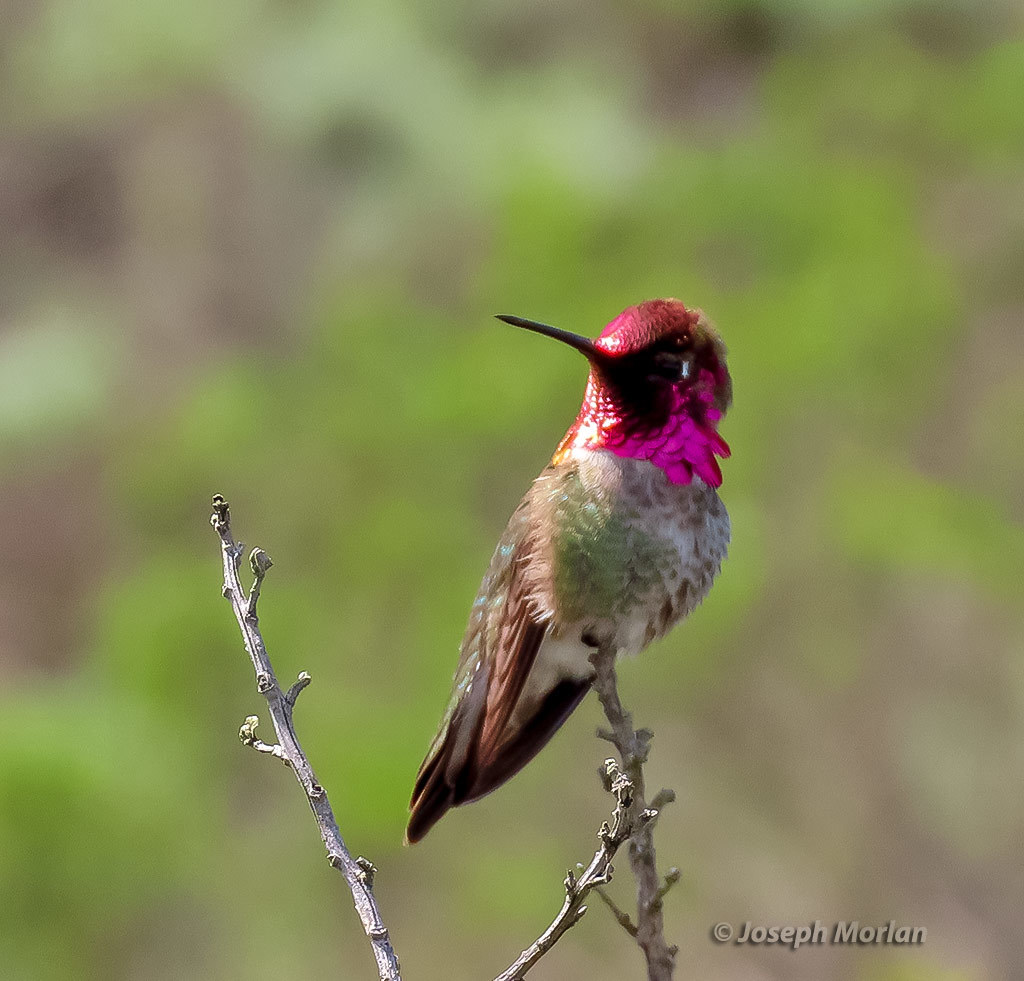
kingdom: Animalia
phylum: Chordata
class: Aves
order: Apodiformes
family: Trochilidae
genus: Calypte
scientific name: Calypte anna
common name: Anna's hummingbird
